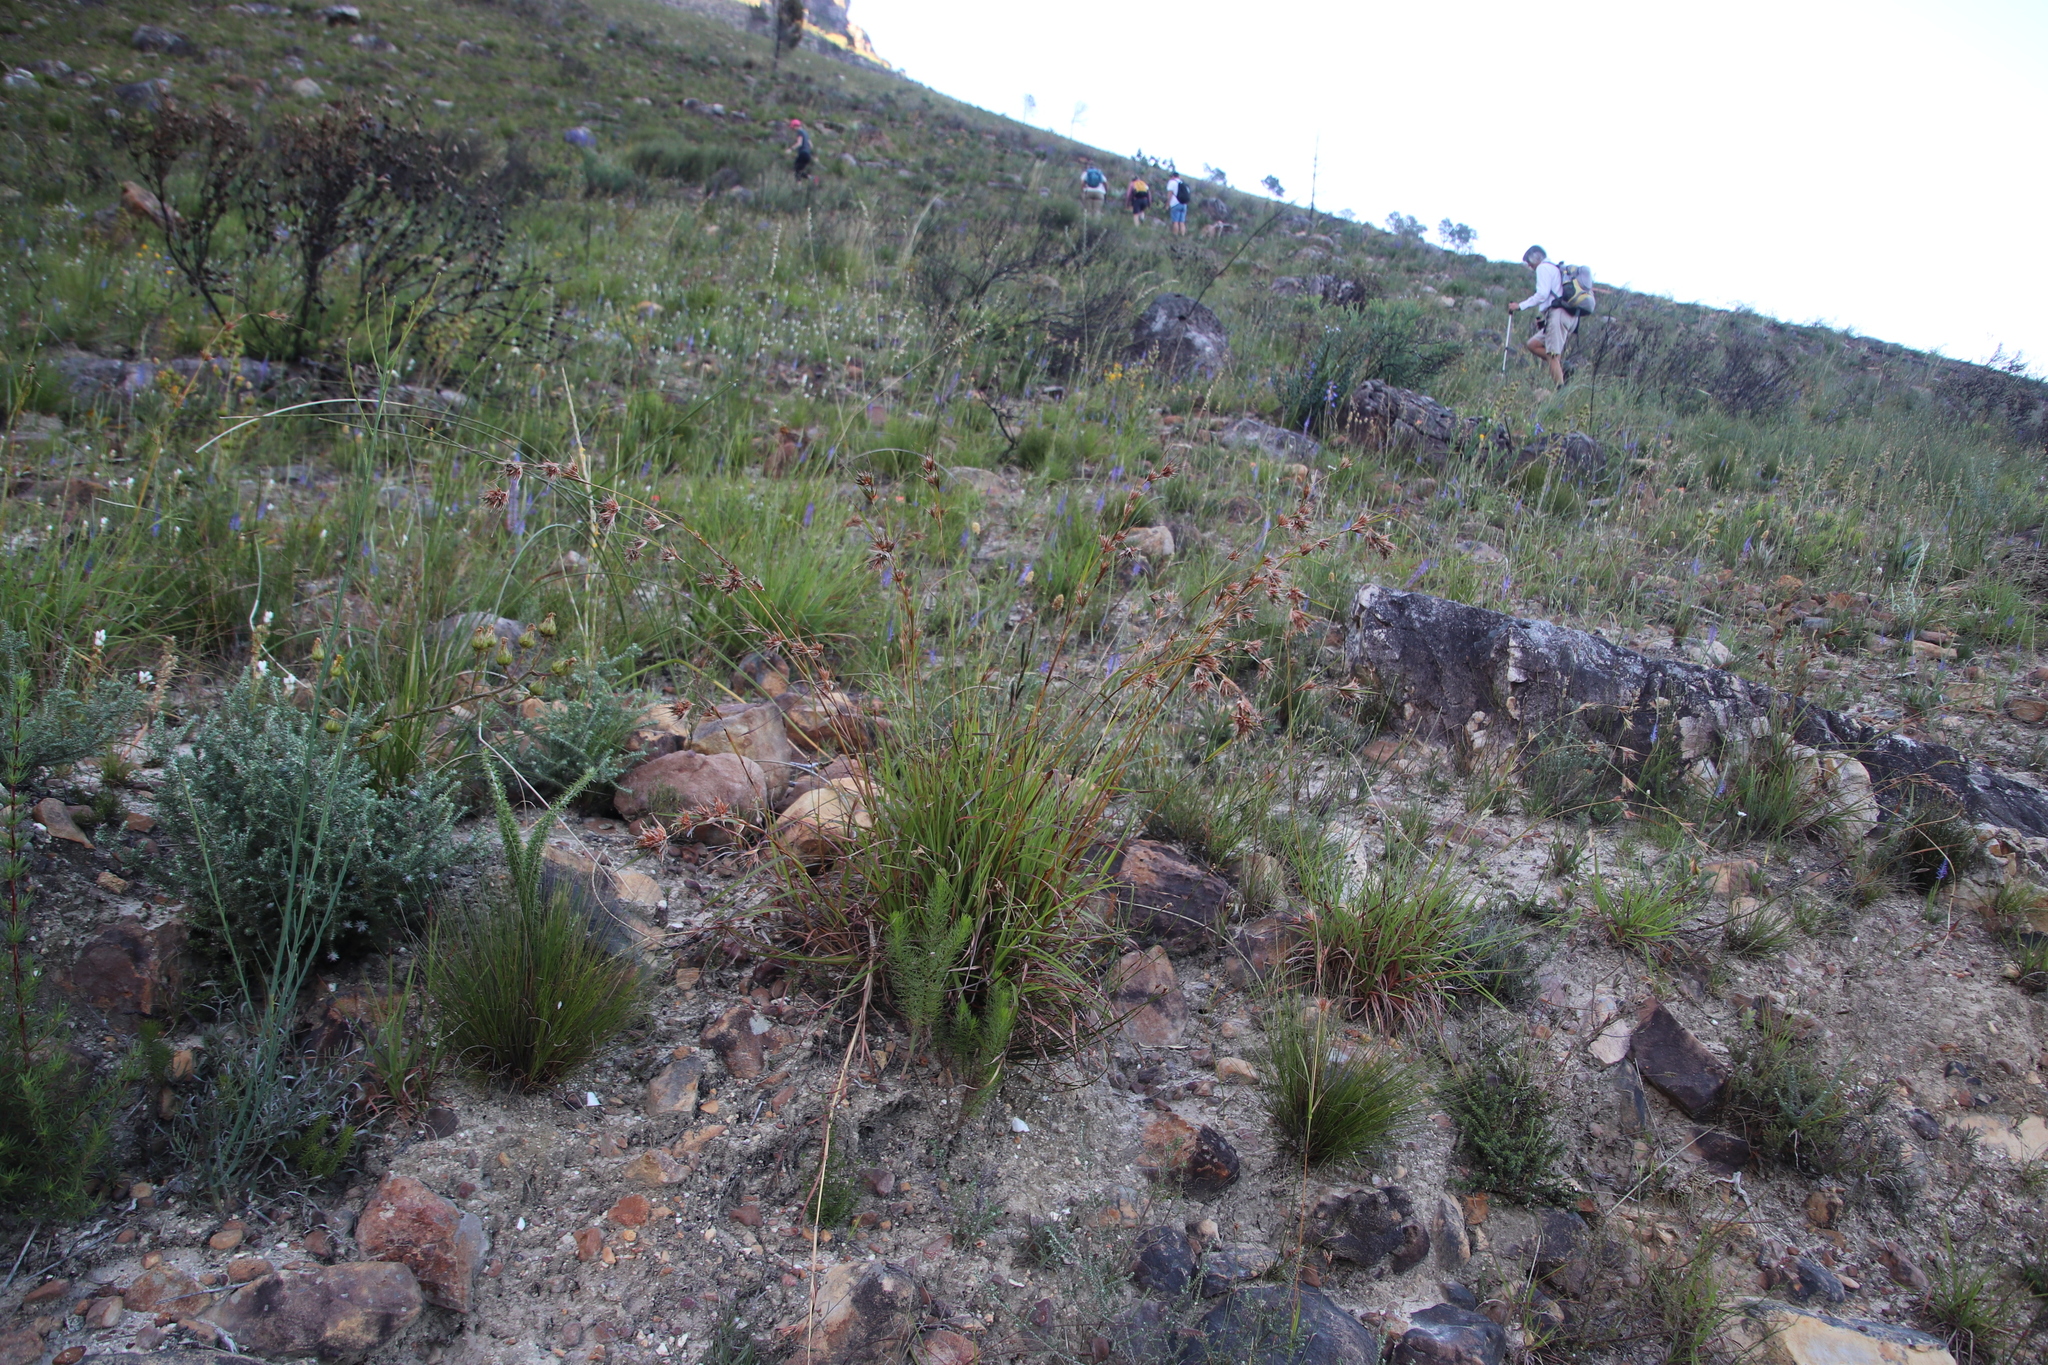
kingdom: Plantae
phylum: Tracheophyta
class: Liliopsida
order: Poales
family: Poaceae
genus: Themeda
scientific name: Themeda triandra
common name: Kangaroo grass
